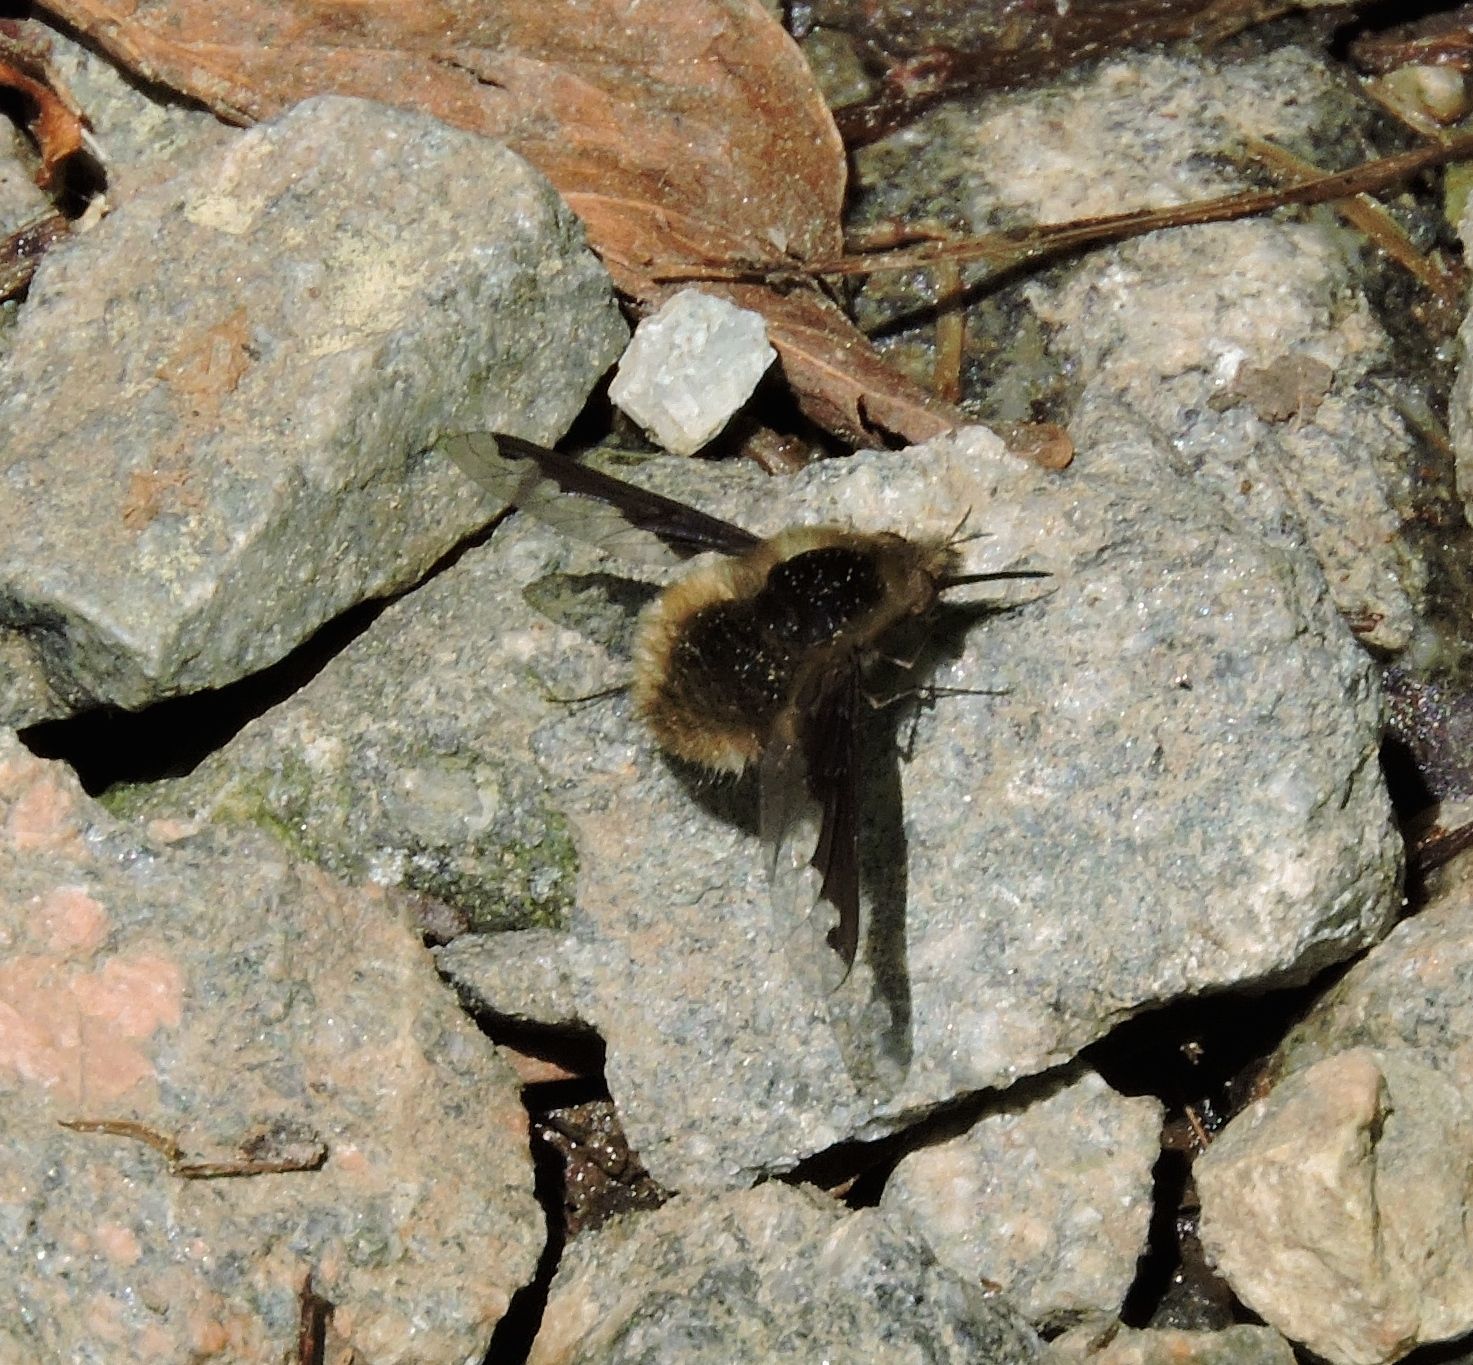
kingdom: Animalia
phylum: Arthropoda
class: Insecta
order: Diptera
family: Bombyliidae
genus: Bombylius
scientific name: Bombylius major
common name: Bee fly
